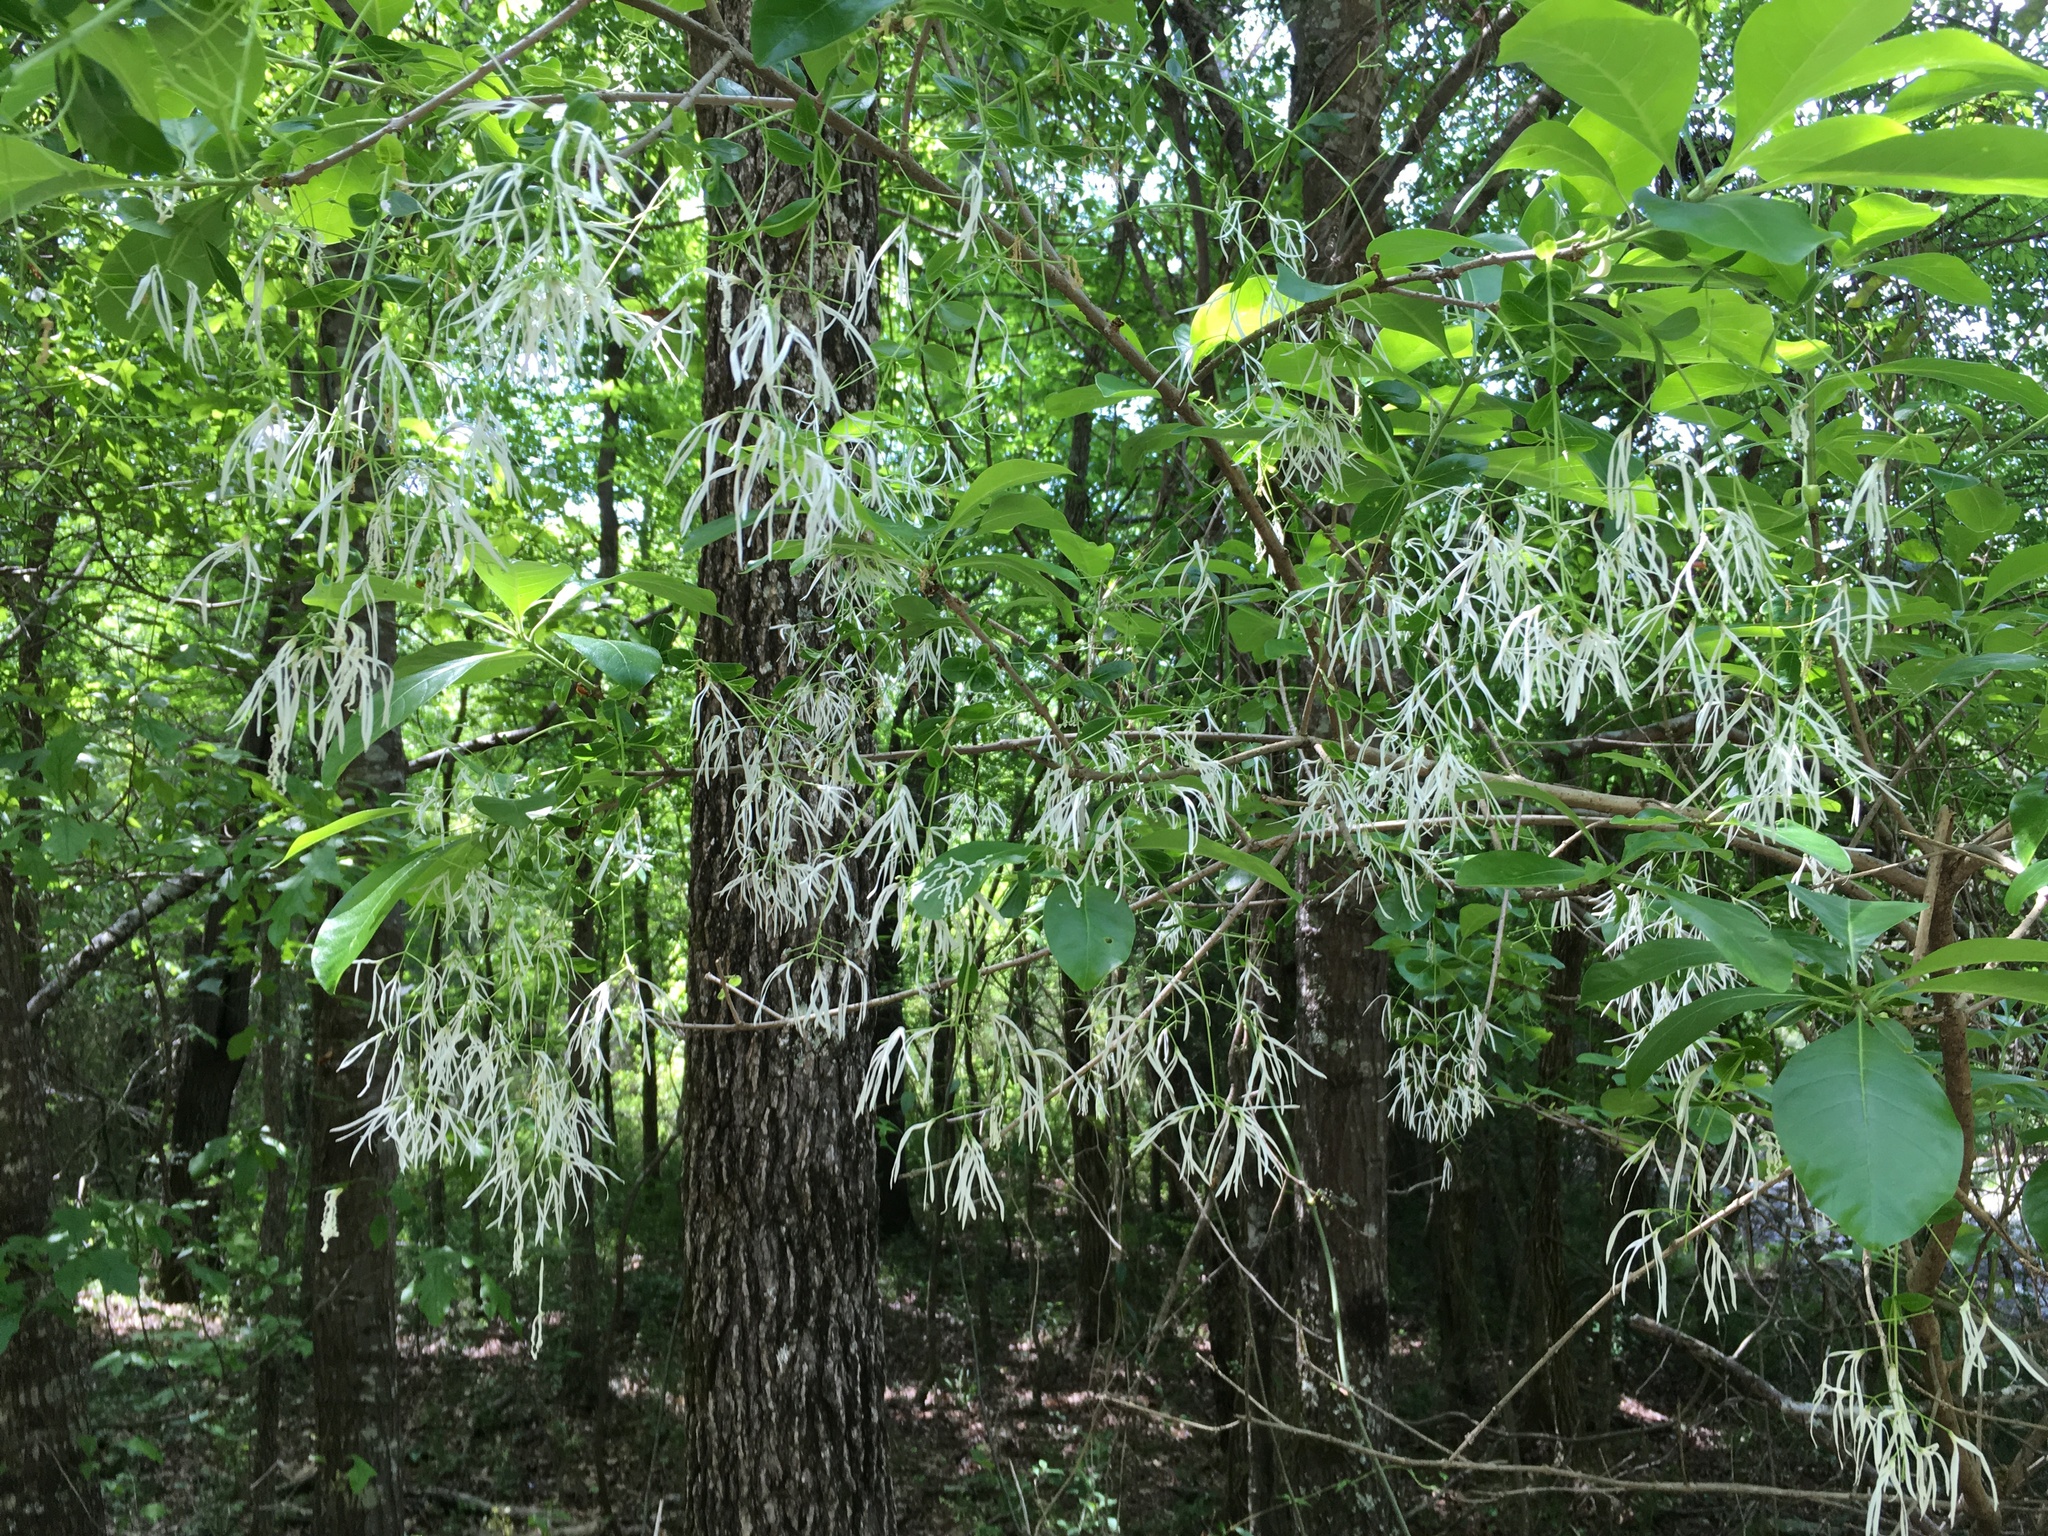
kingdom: Plantae
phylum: Tracheophyta
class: Magnoliopsida
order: Lamiales
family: Oleaceae
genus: Chionanthus
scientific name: Chionanthus virginicus
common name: American fringetree
